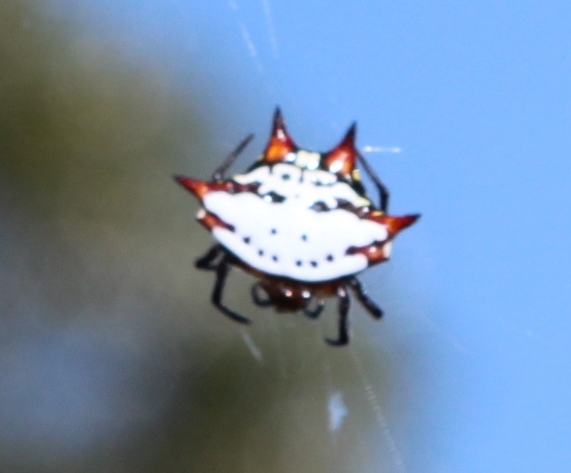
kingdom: Animalia
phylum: Arthropoda
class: Arachnida
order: Araneae
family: Araneidae
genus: Gasteracantha
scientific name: Gasteracantha sanguinolenta
